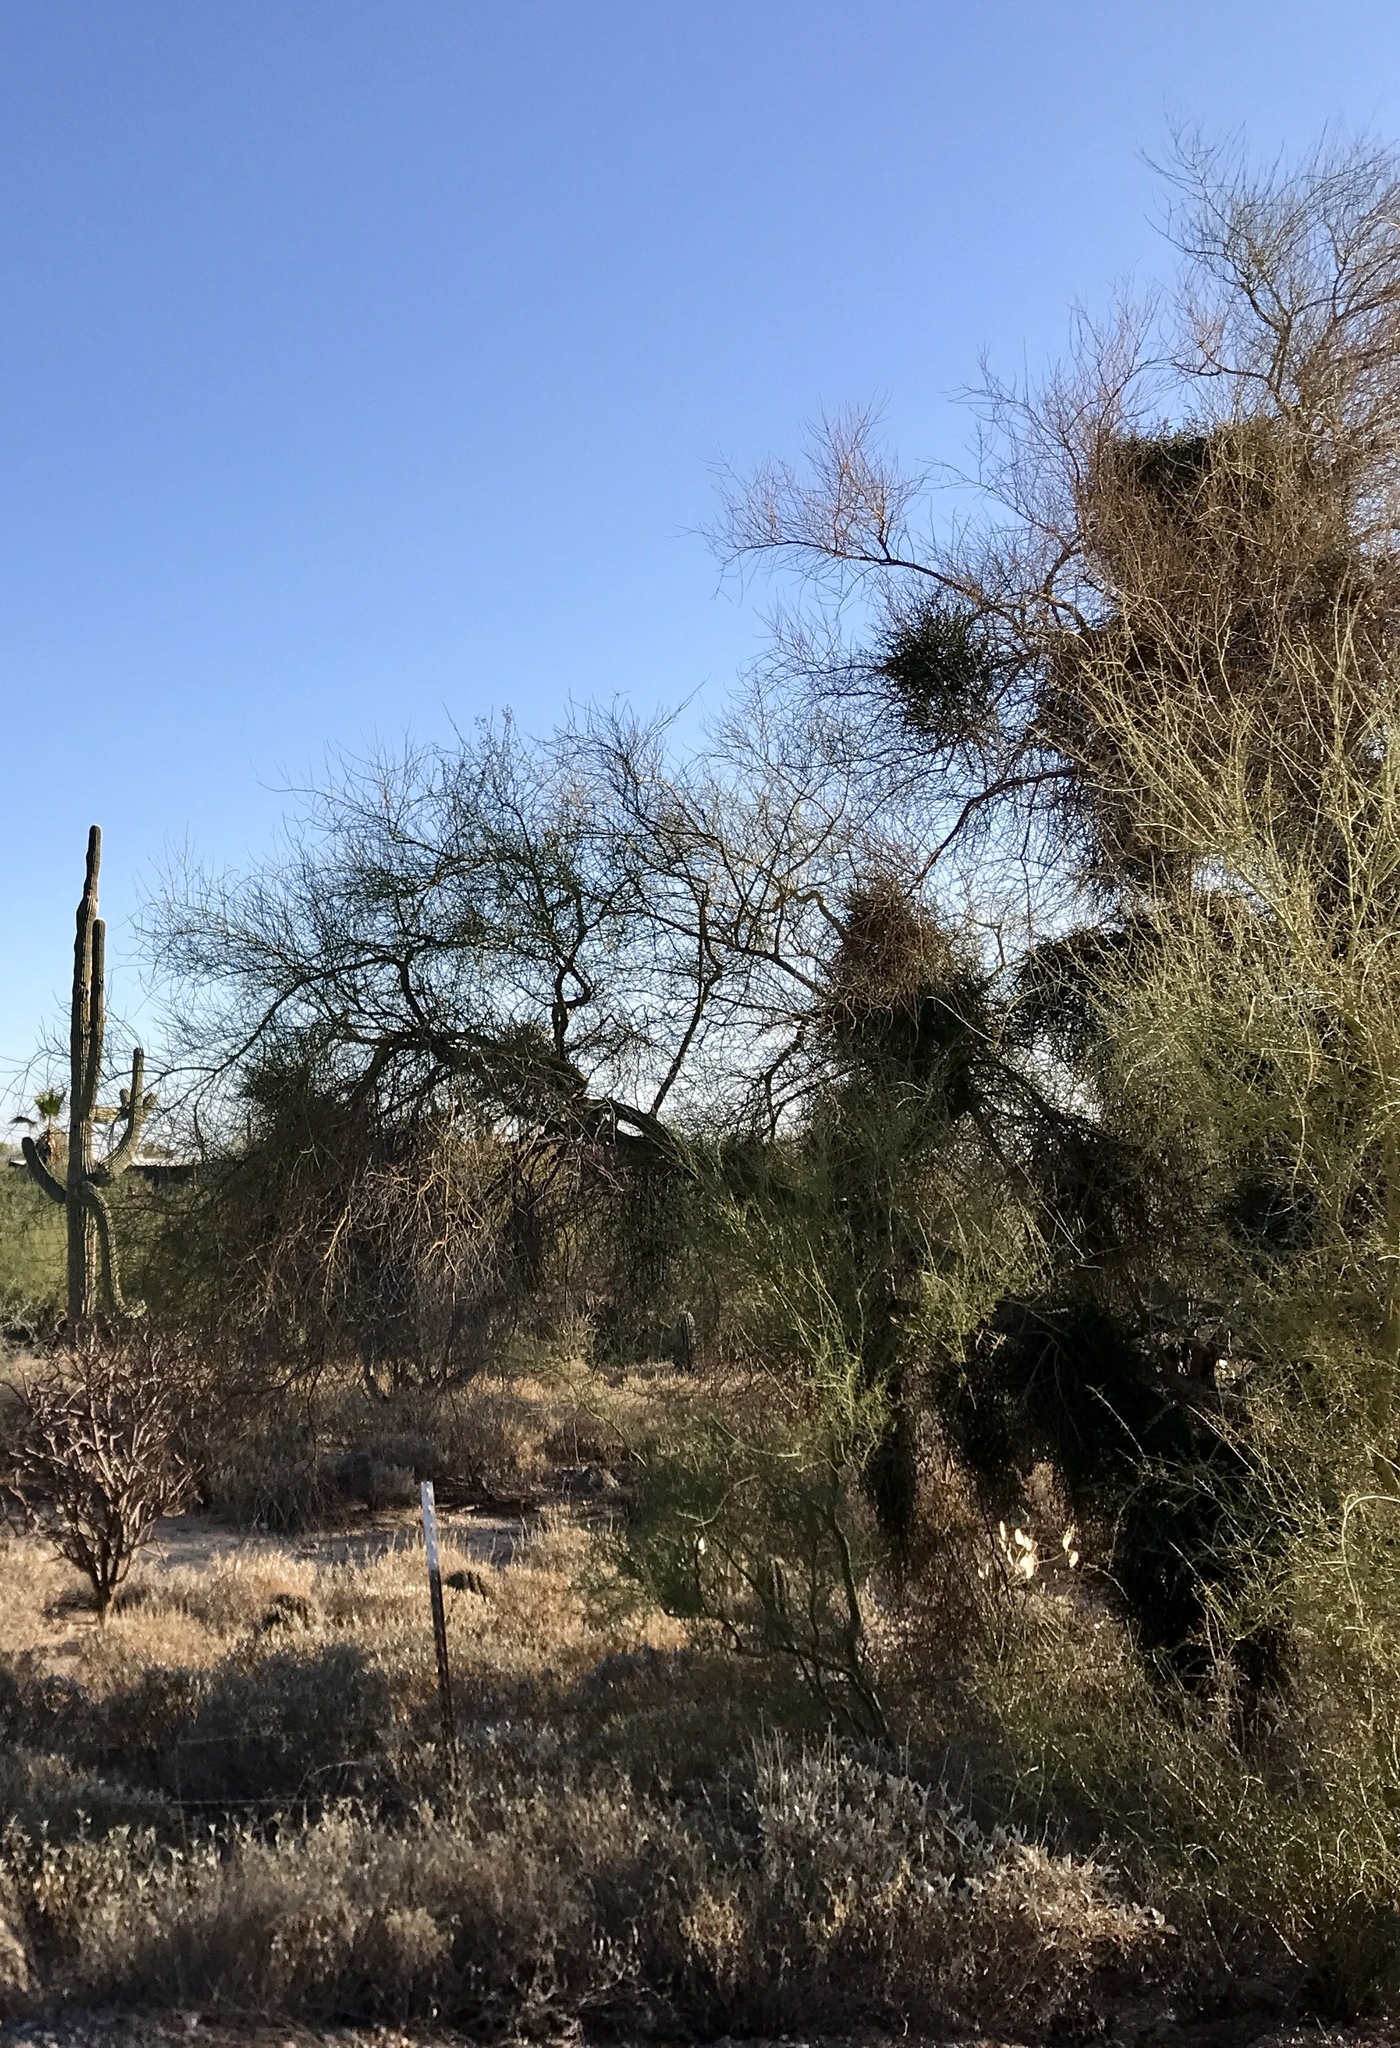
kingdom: Plantae
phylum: Tracheophyta
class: Magnoliopsida
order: Santalales
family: Viscaceae
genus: Phoradendron
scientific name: Phoradendron californicum
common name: Acacia mistletoe
